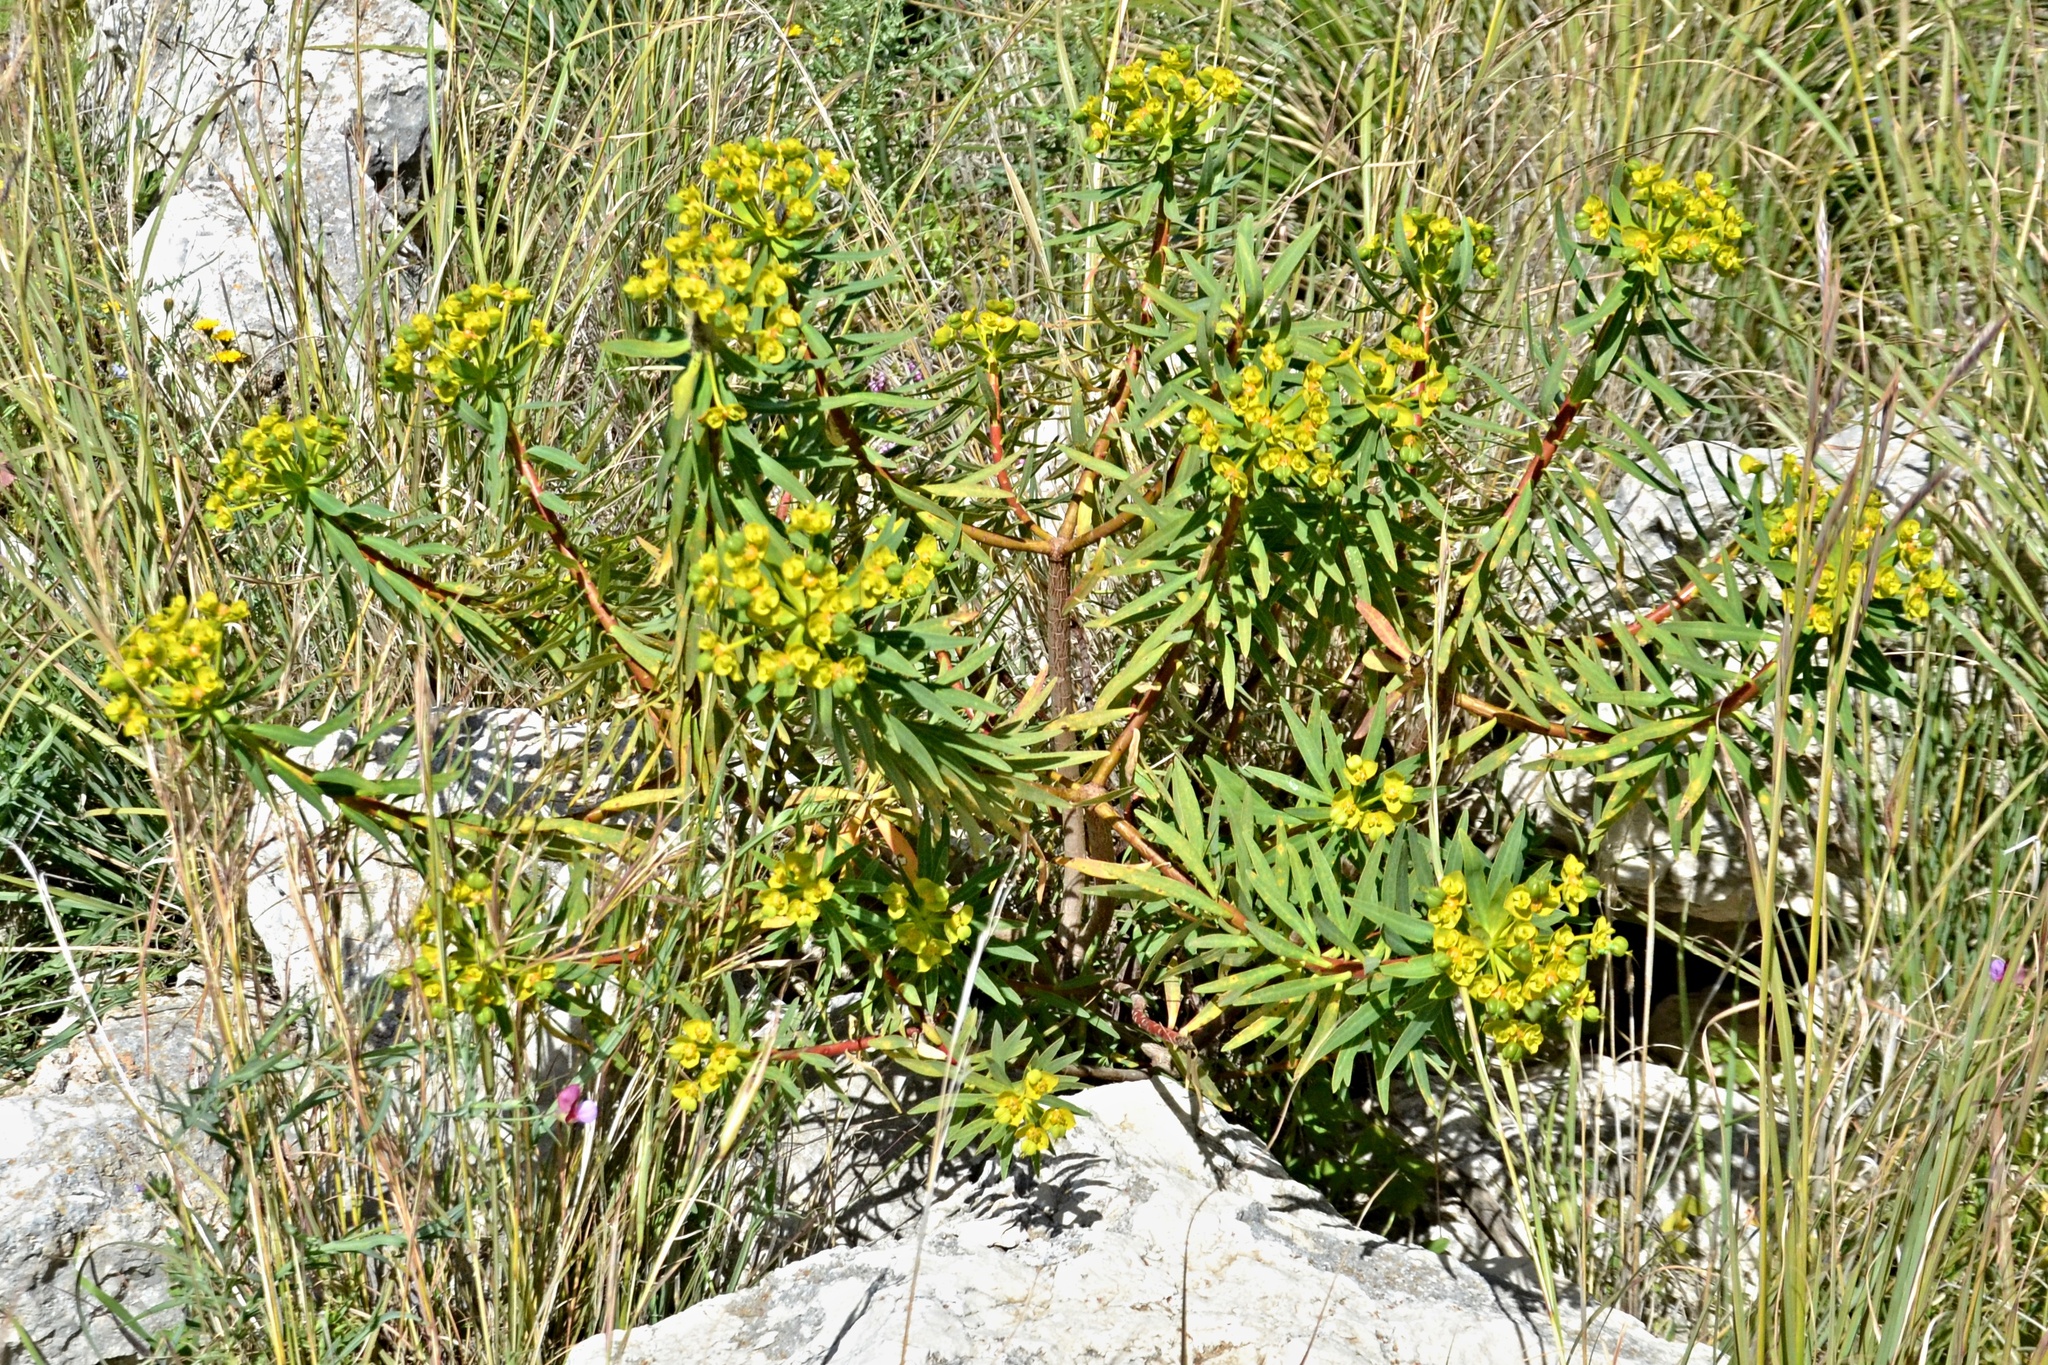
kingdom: Plantae
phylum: Tracheophyta
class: Magnoliopsida
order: Malpighiales
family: Euphorbiaceae
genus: Euphorbia
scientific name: Euphorbia dendroides
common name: Tree spurge
